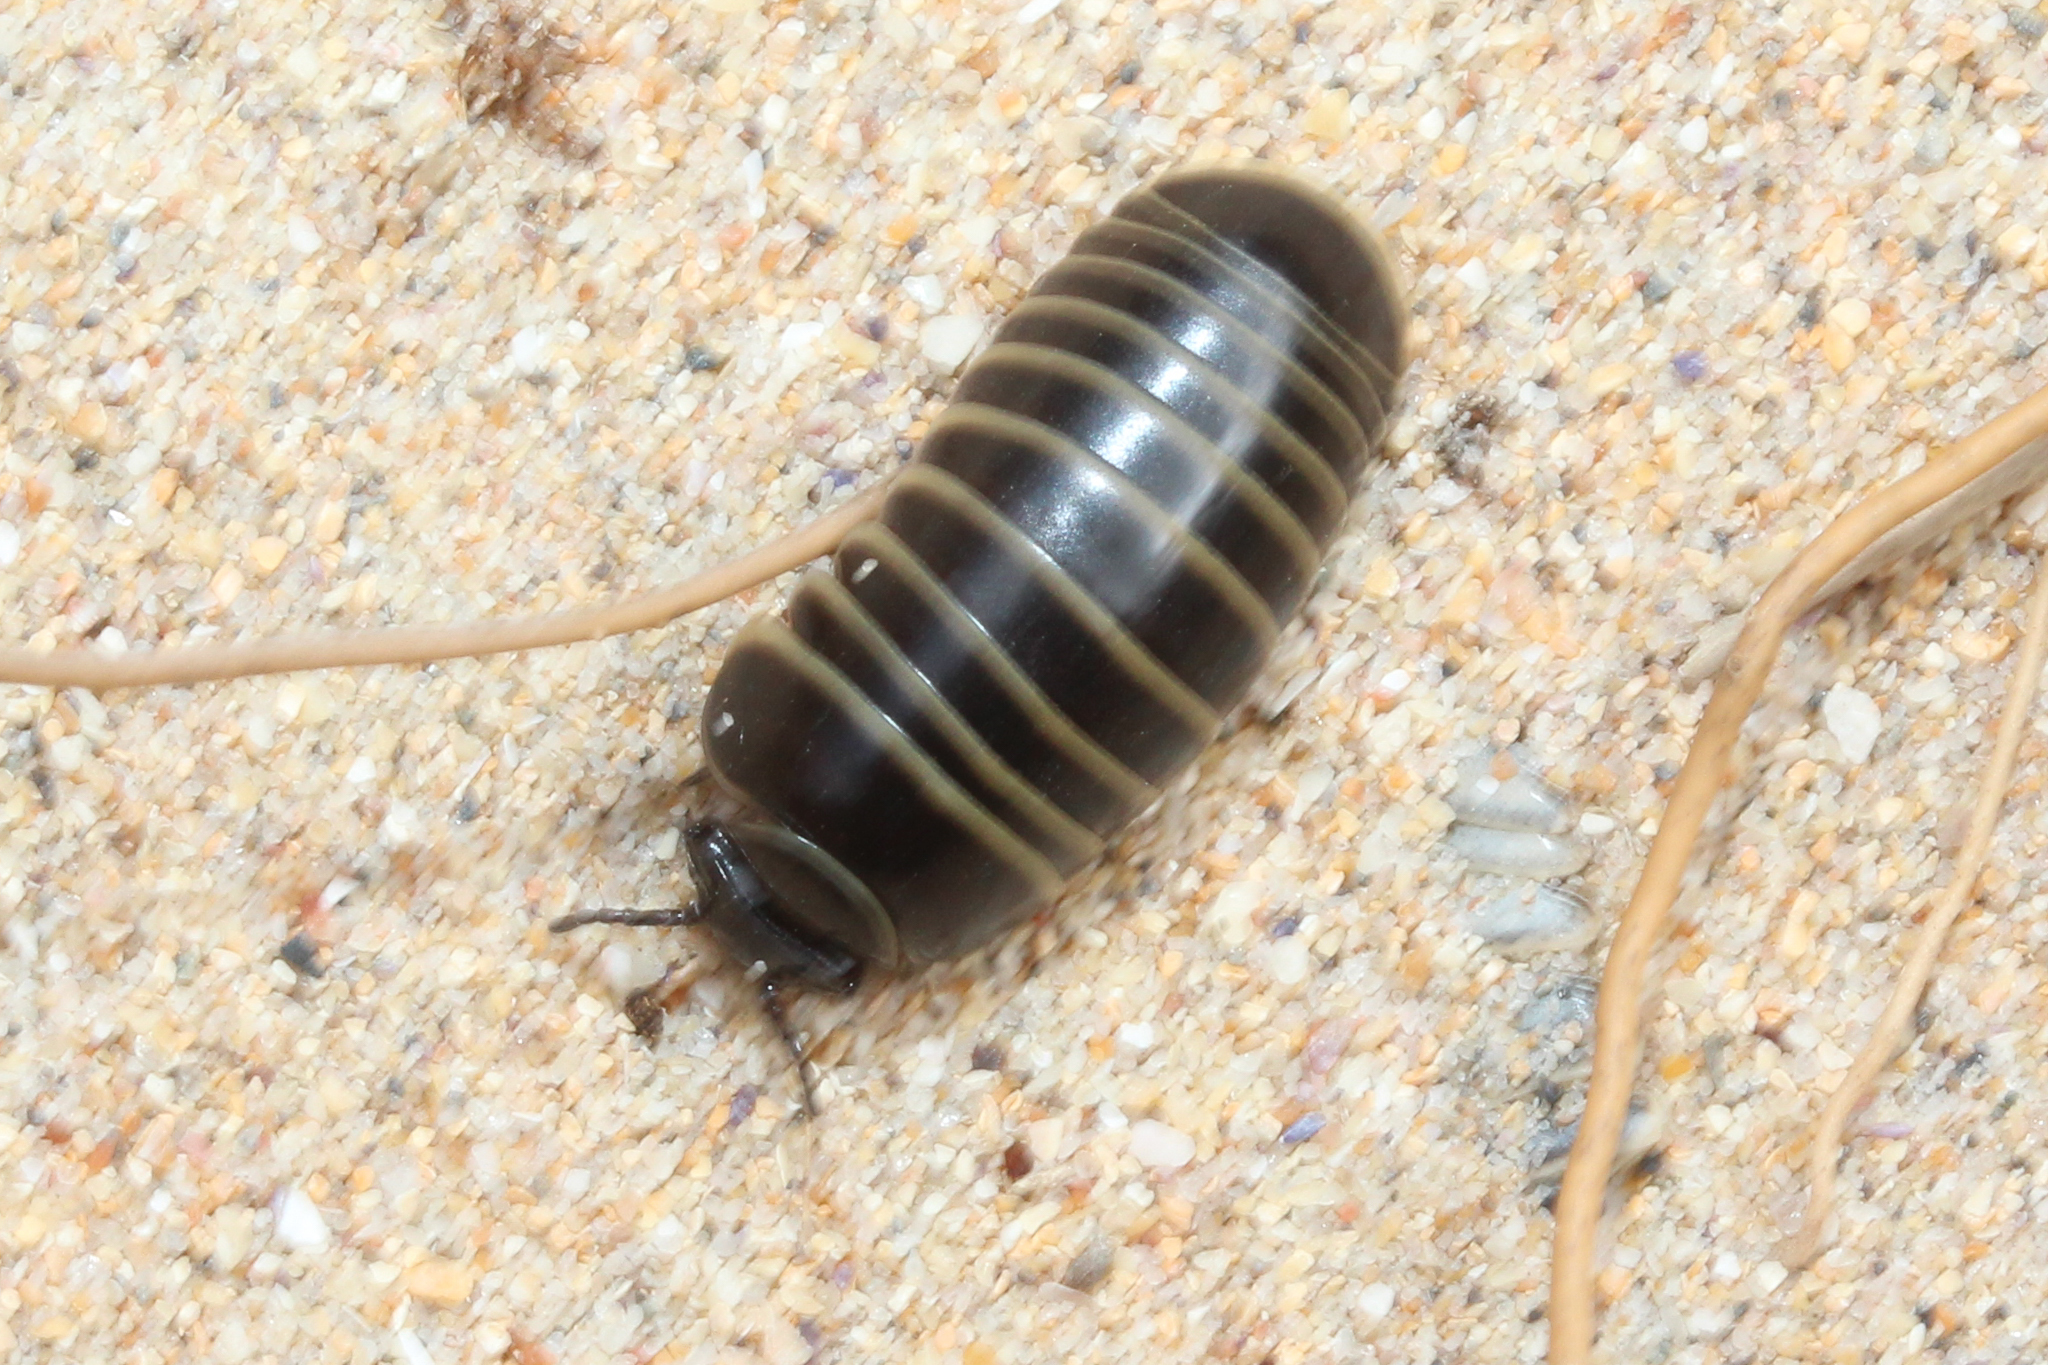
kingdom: Animalia
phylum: Arthropoda
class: Diplopoda
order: Glomerida
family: Glomeridae
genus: Glomeris
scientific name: Glomeris marginata
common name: Bordered pill millipede
